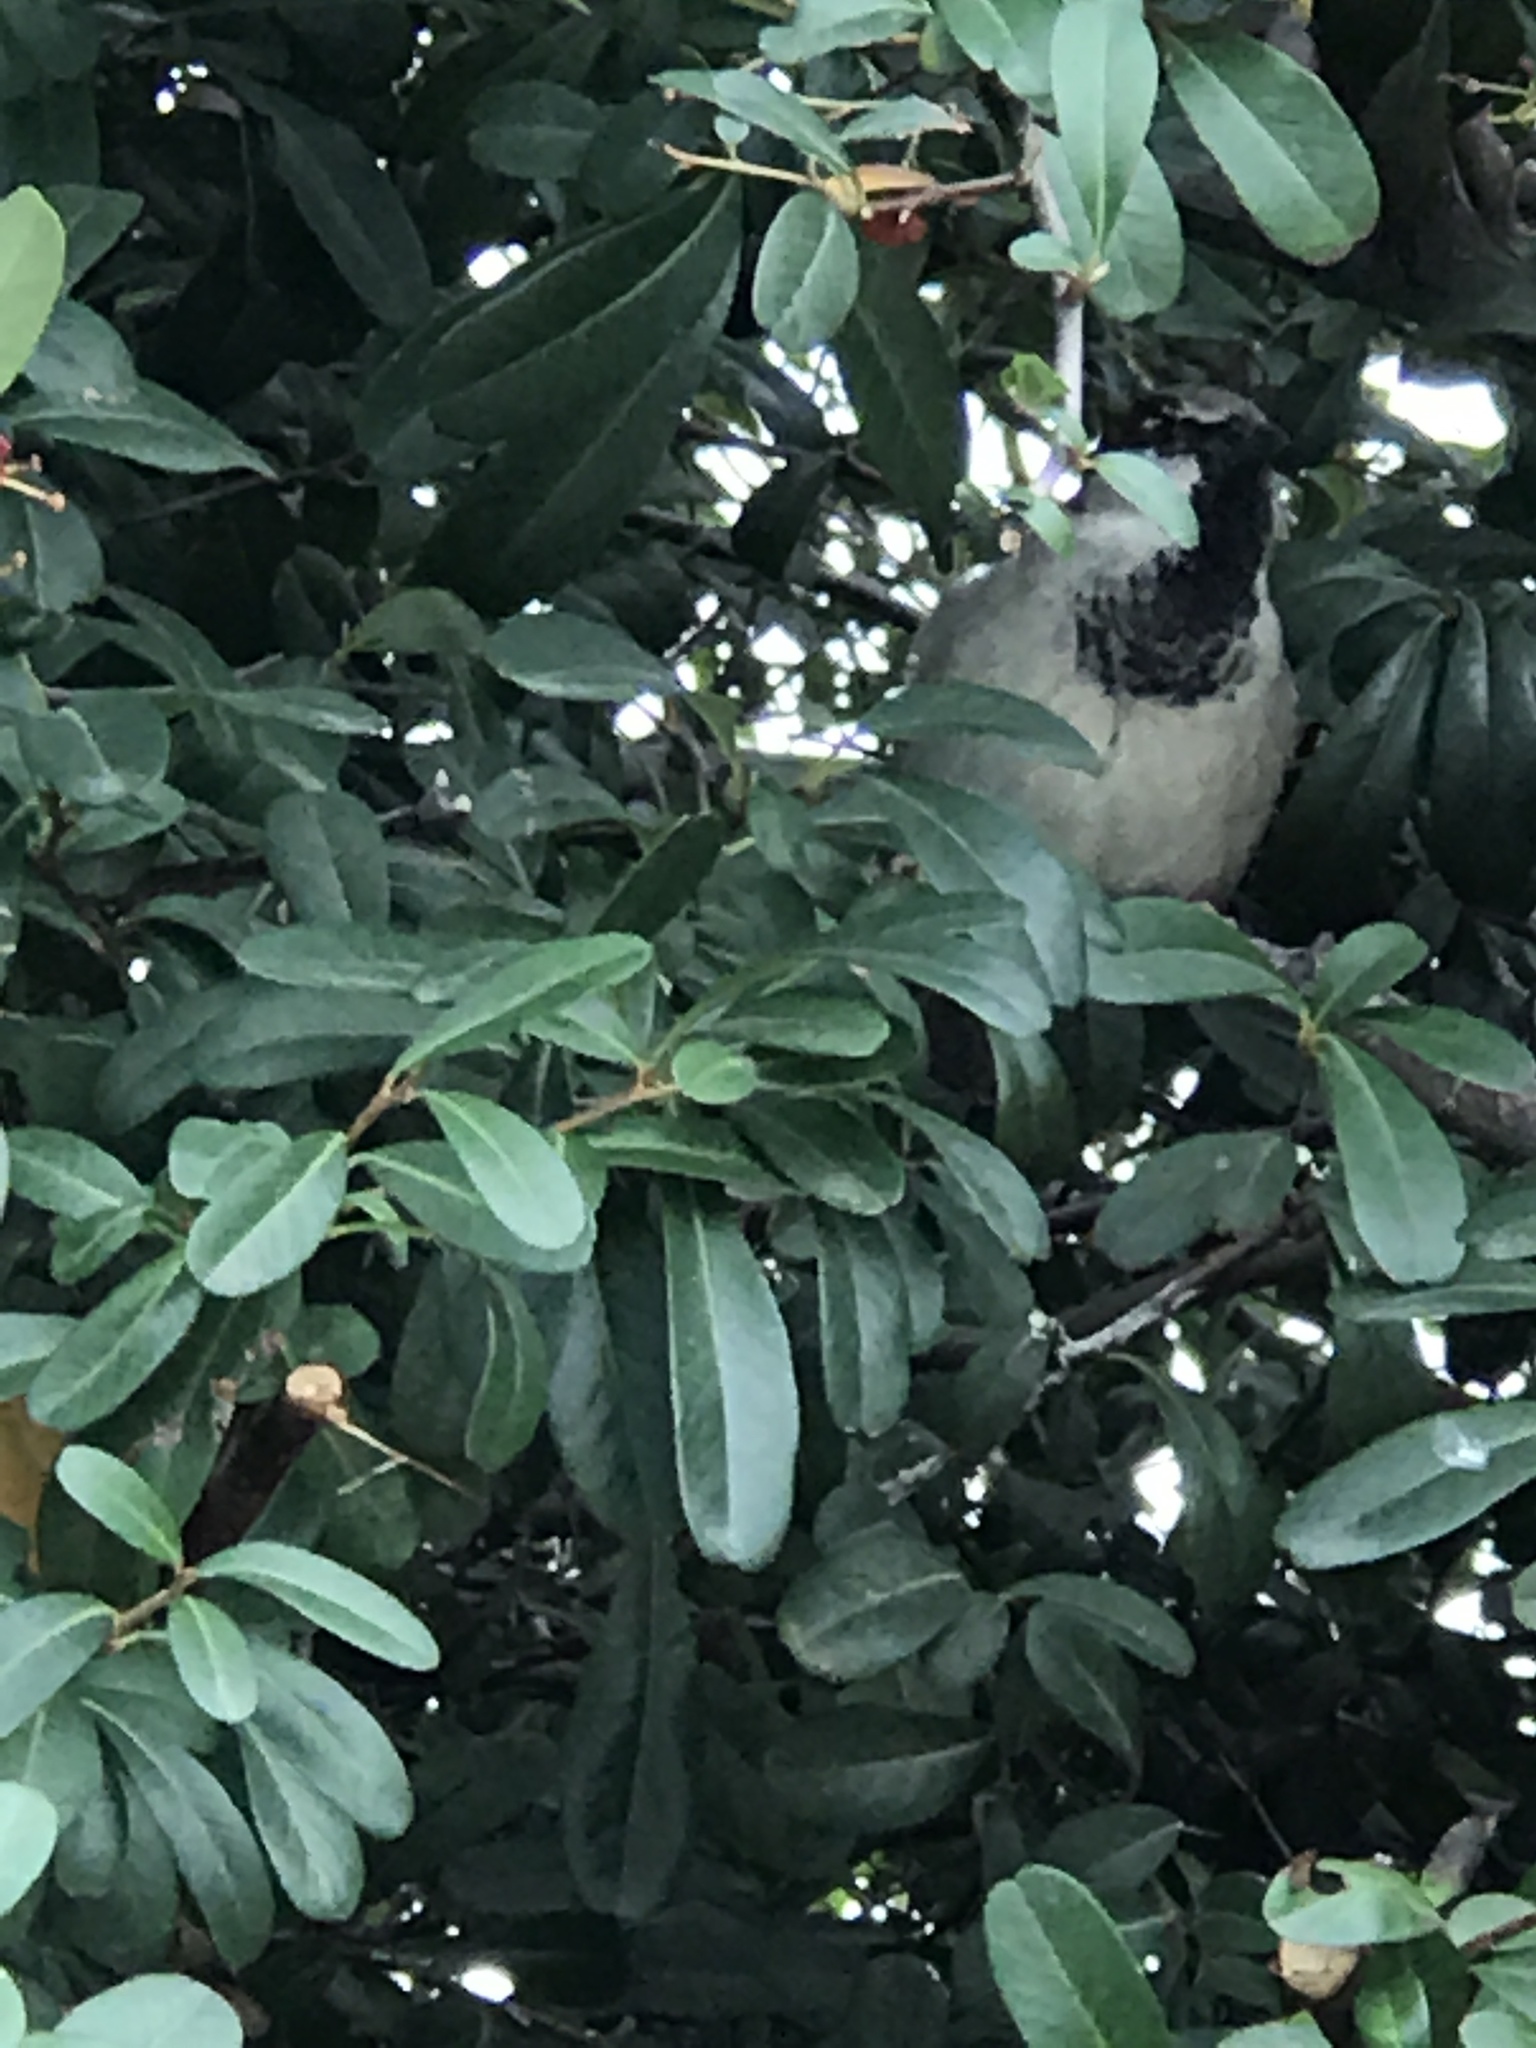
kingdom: Animalia
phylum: Chordata
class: Aves
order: Passeriformes
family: Passeridae
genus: Passer
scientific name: Passer domesticus
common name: House sparrow
